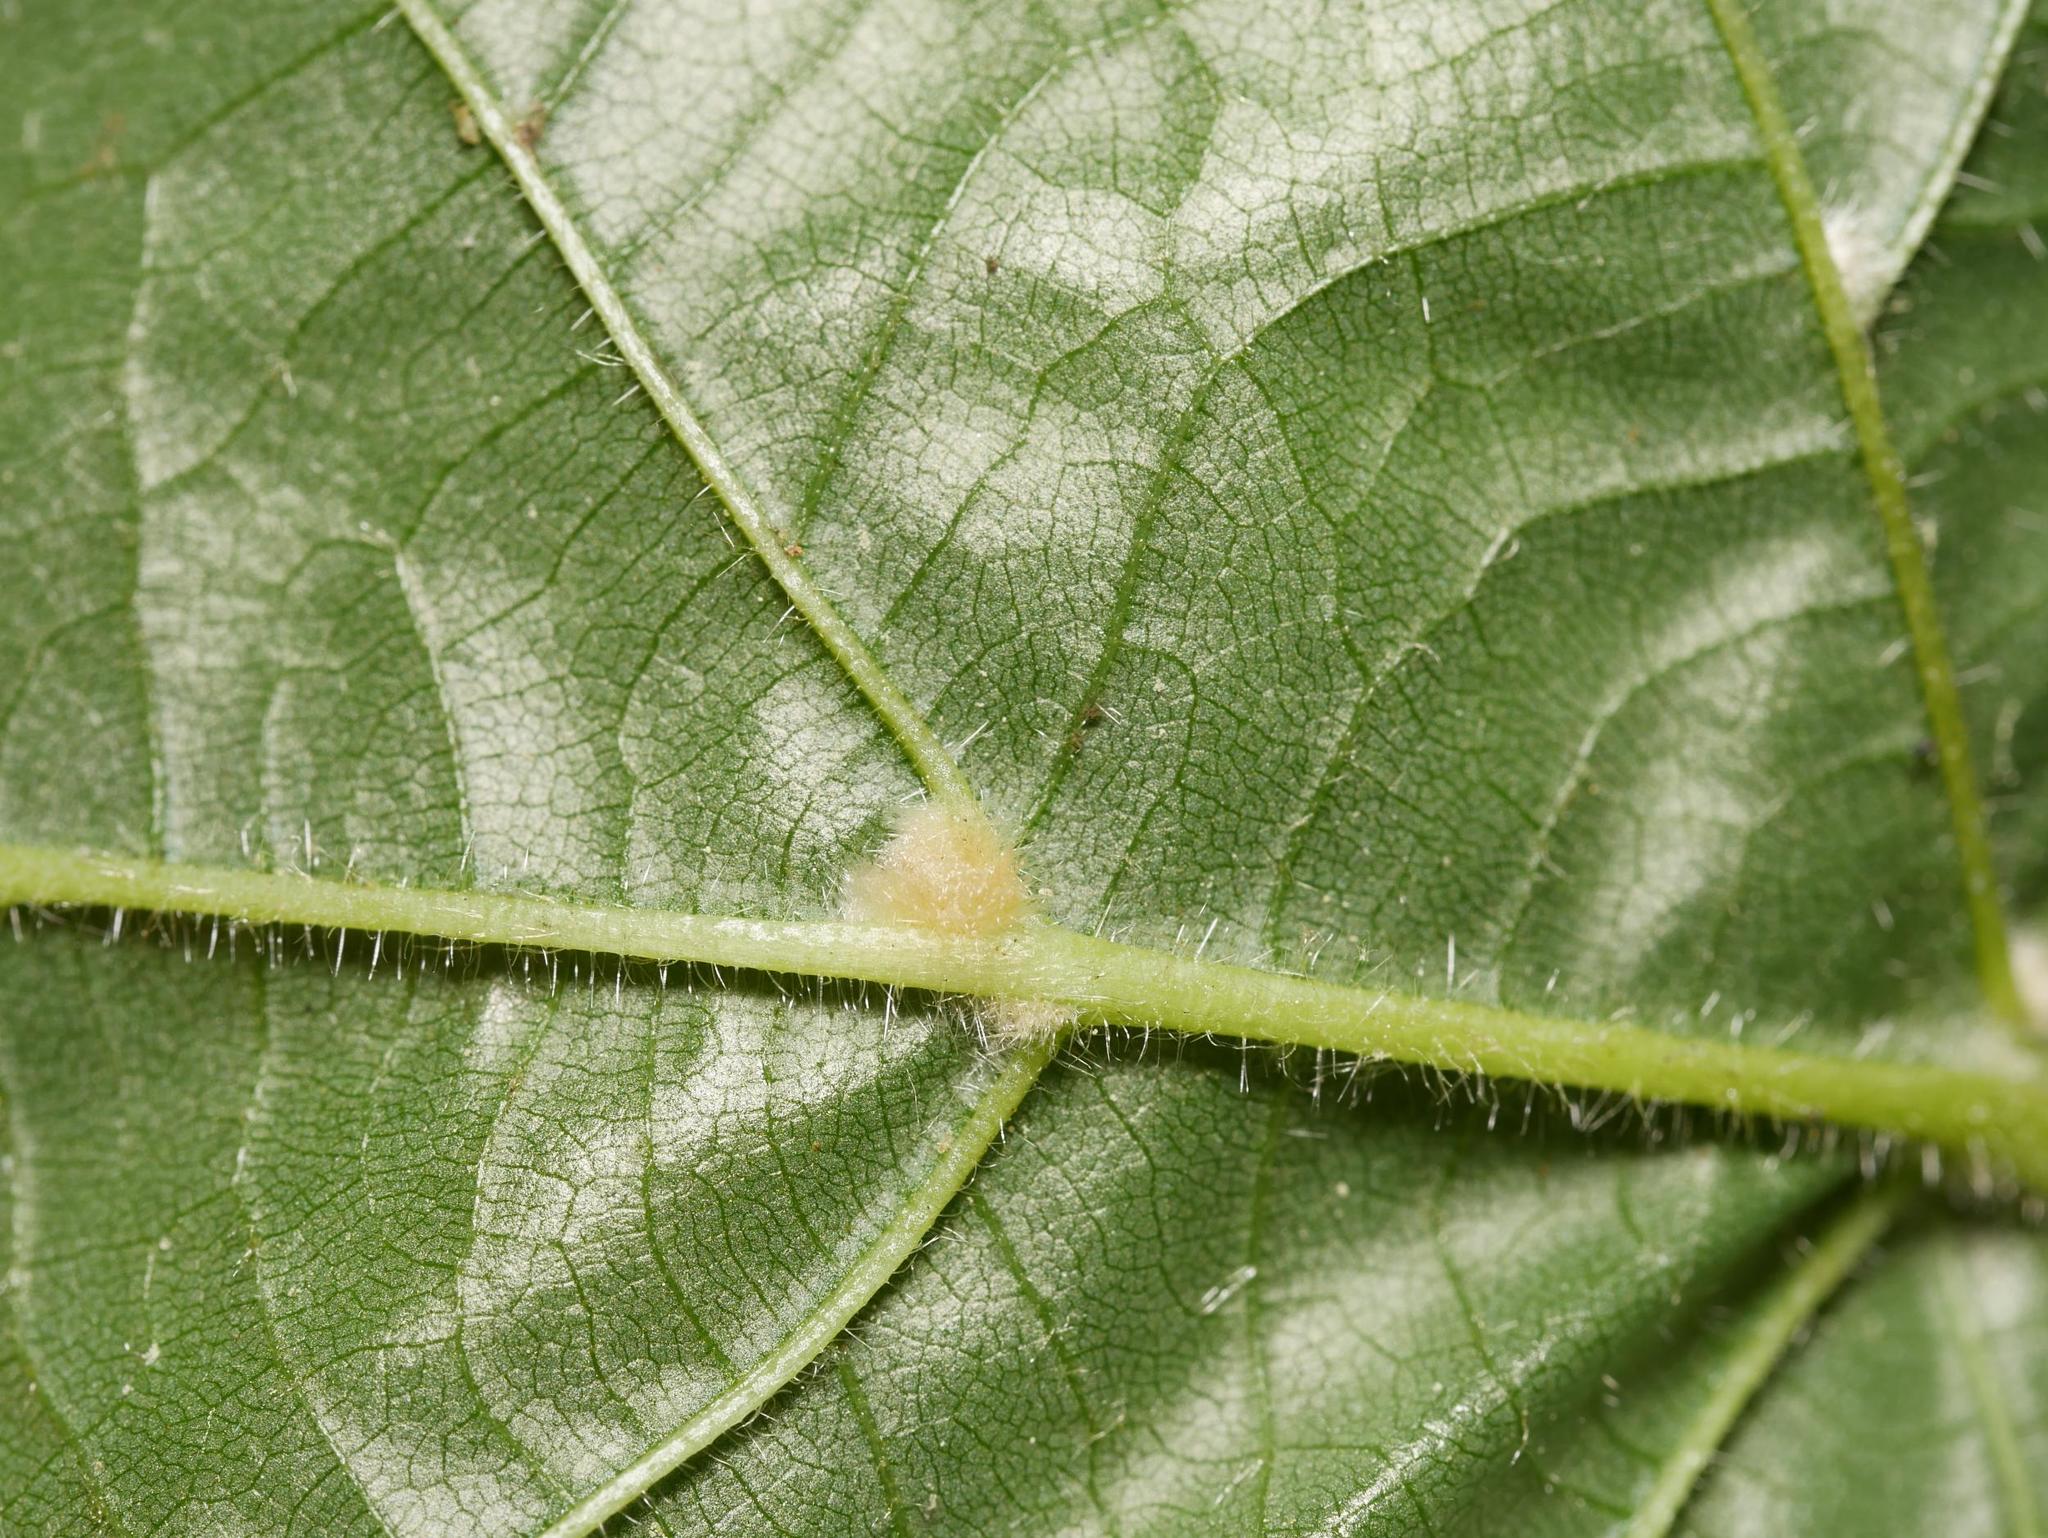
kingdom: Animalia
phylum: Arthropoda
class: Arachnida
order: Trombidiformes
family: Eriophyidae
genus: Eriophyes
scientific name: Eriophyes exilis
